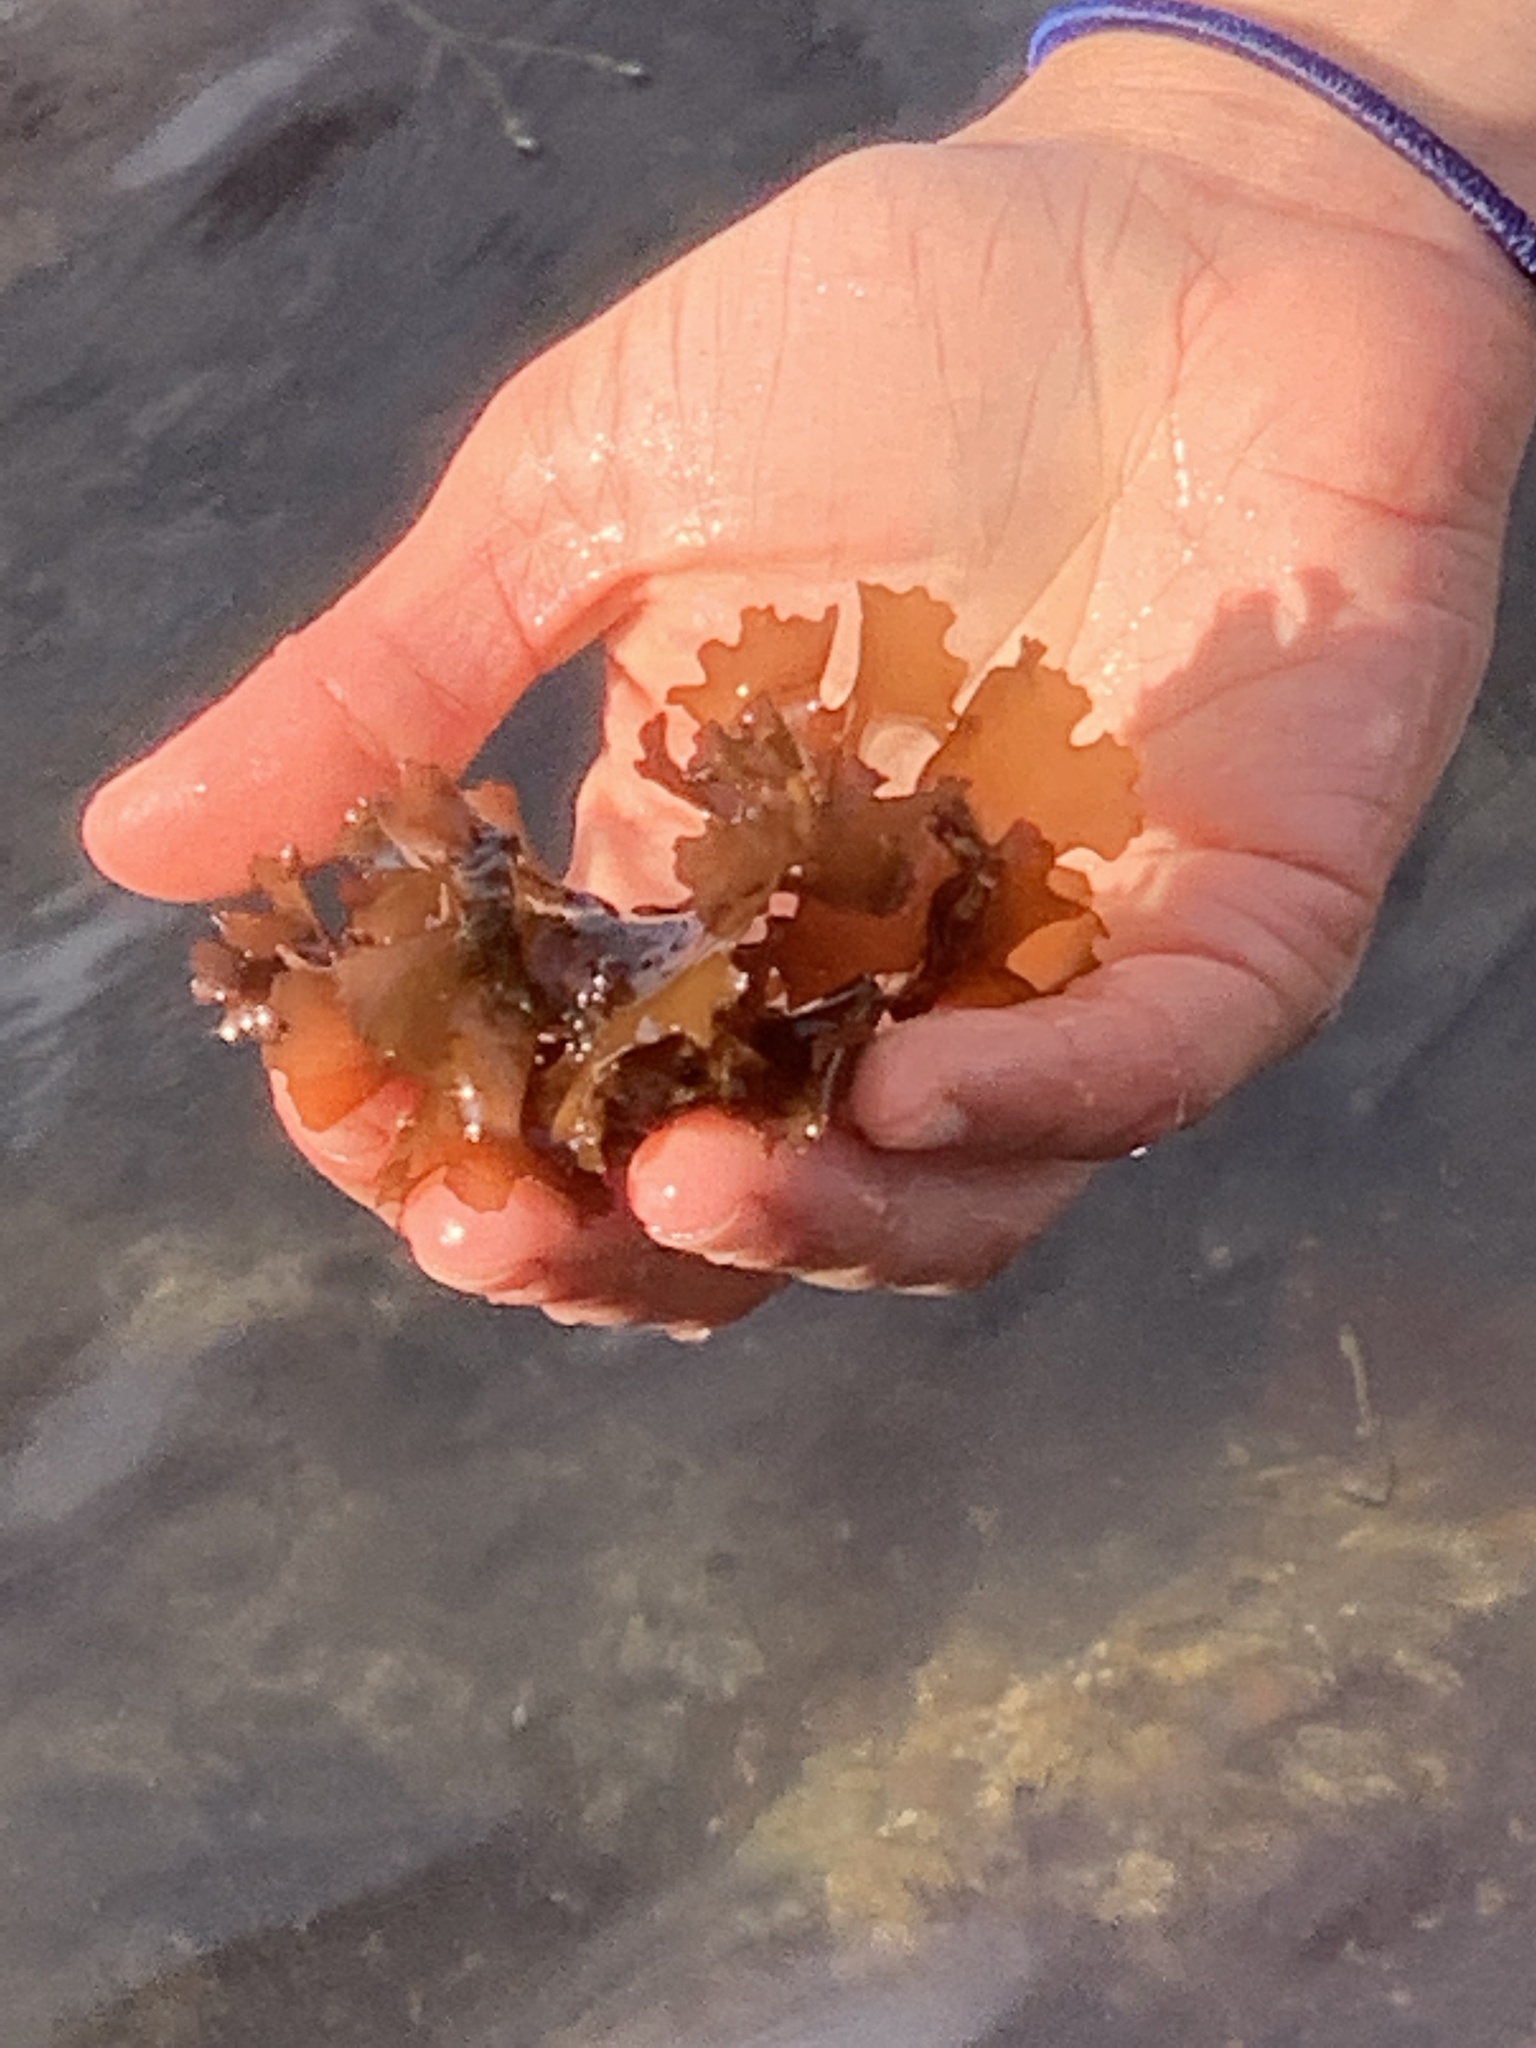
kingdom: Plantae
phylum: Rhodophyta
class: Florideophyceae
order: Gigartinales
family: Gigartinaceae
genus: Chondrus
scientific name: Chondrus crispus
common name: Carrageen
